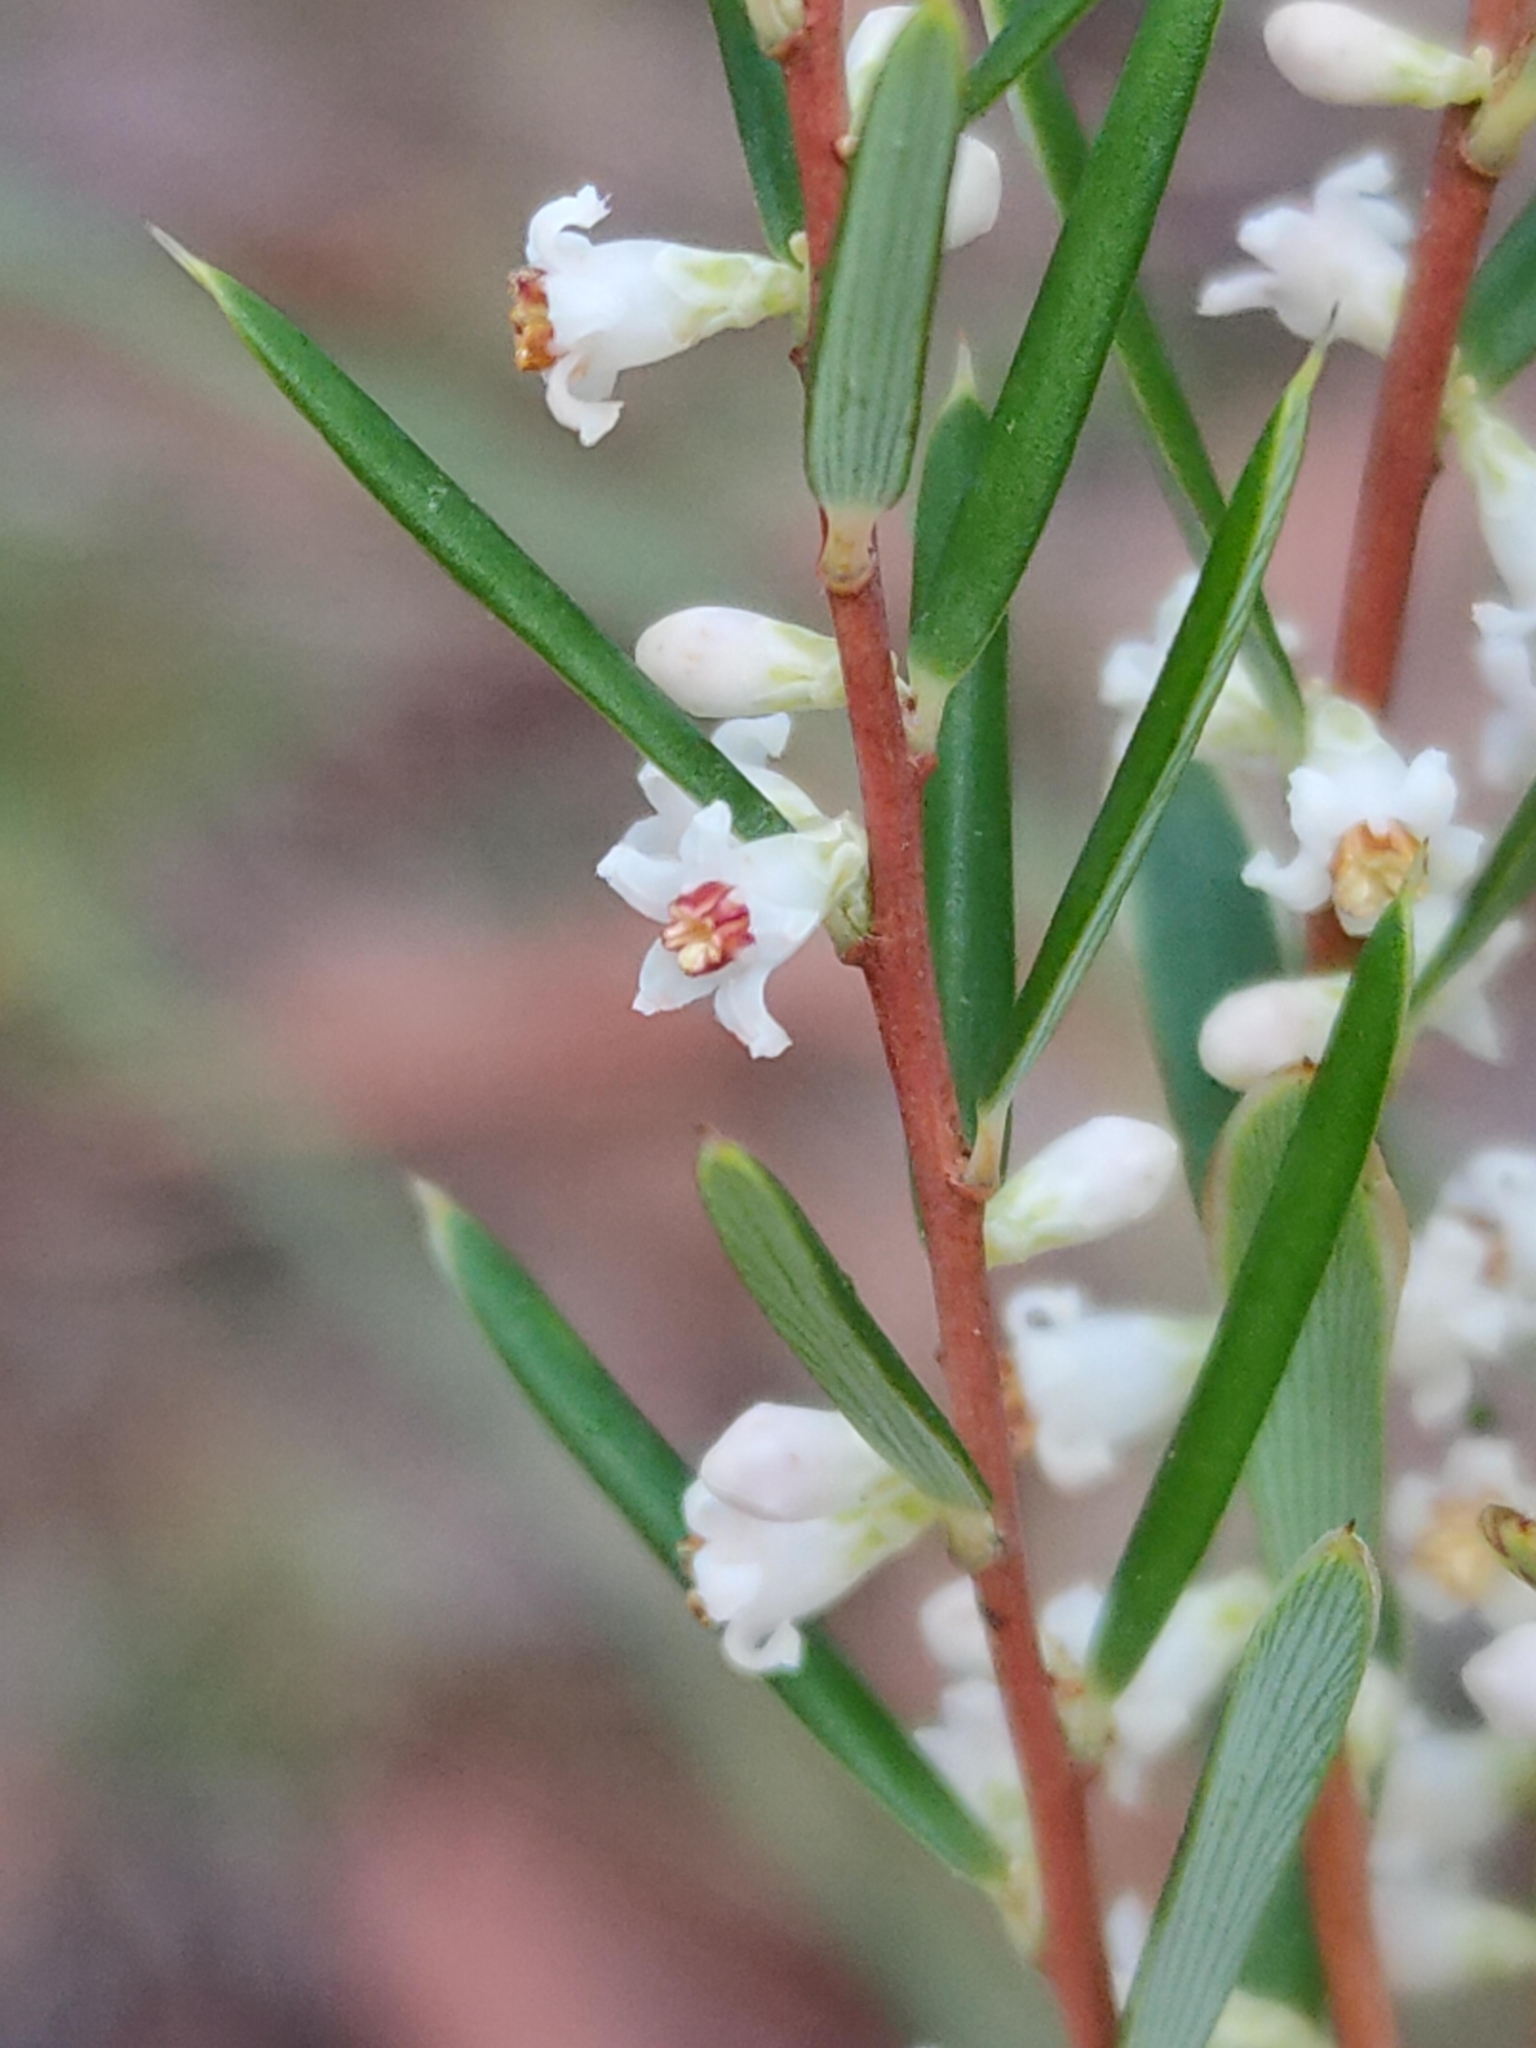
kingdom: Plantae
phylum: Tracheophyta
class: Magnoliopsida
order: Ericales
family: Ericaceae
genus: Monotoca
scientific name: Monotoca scoparia
